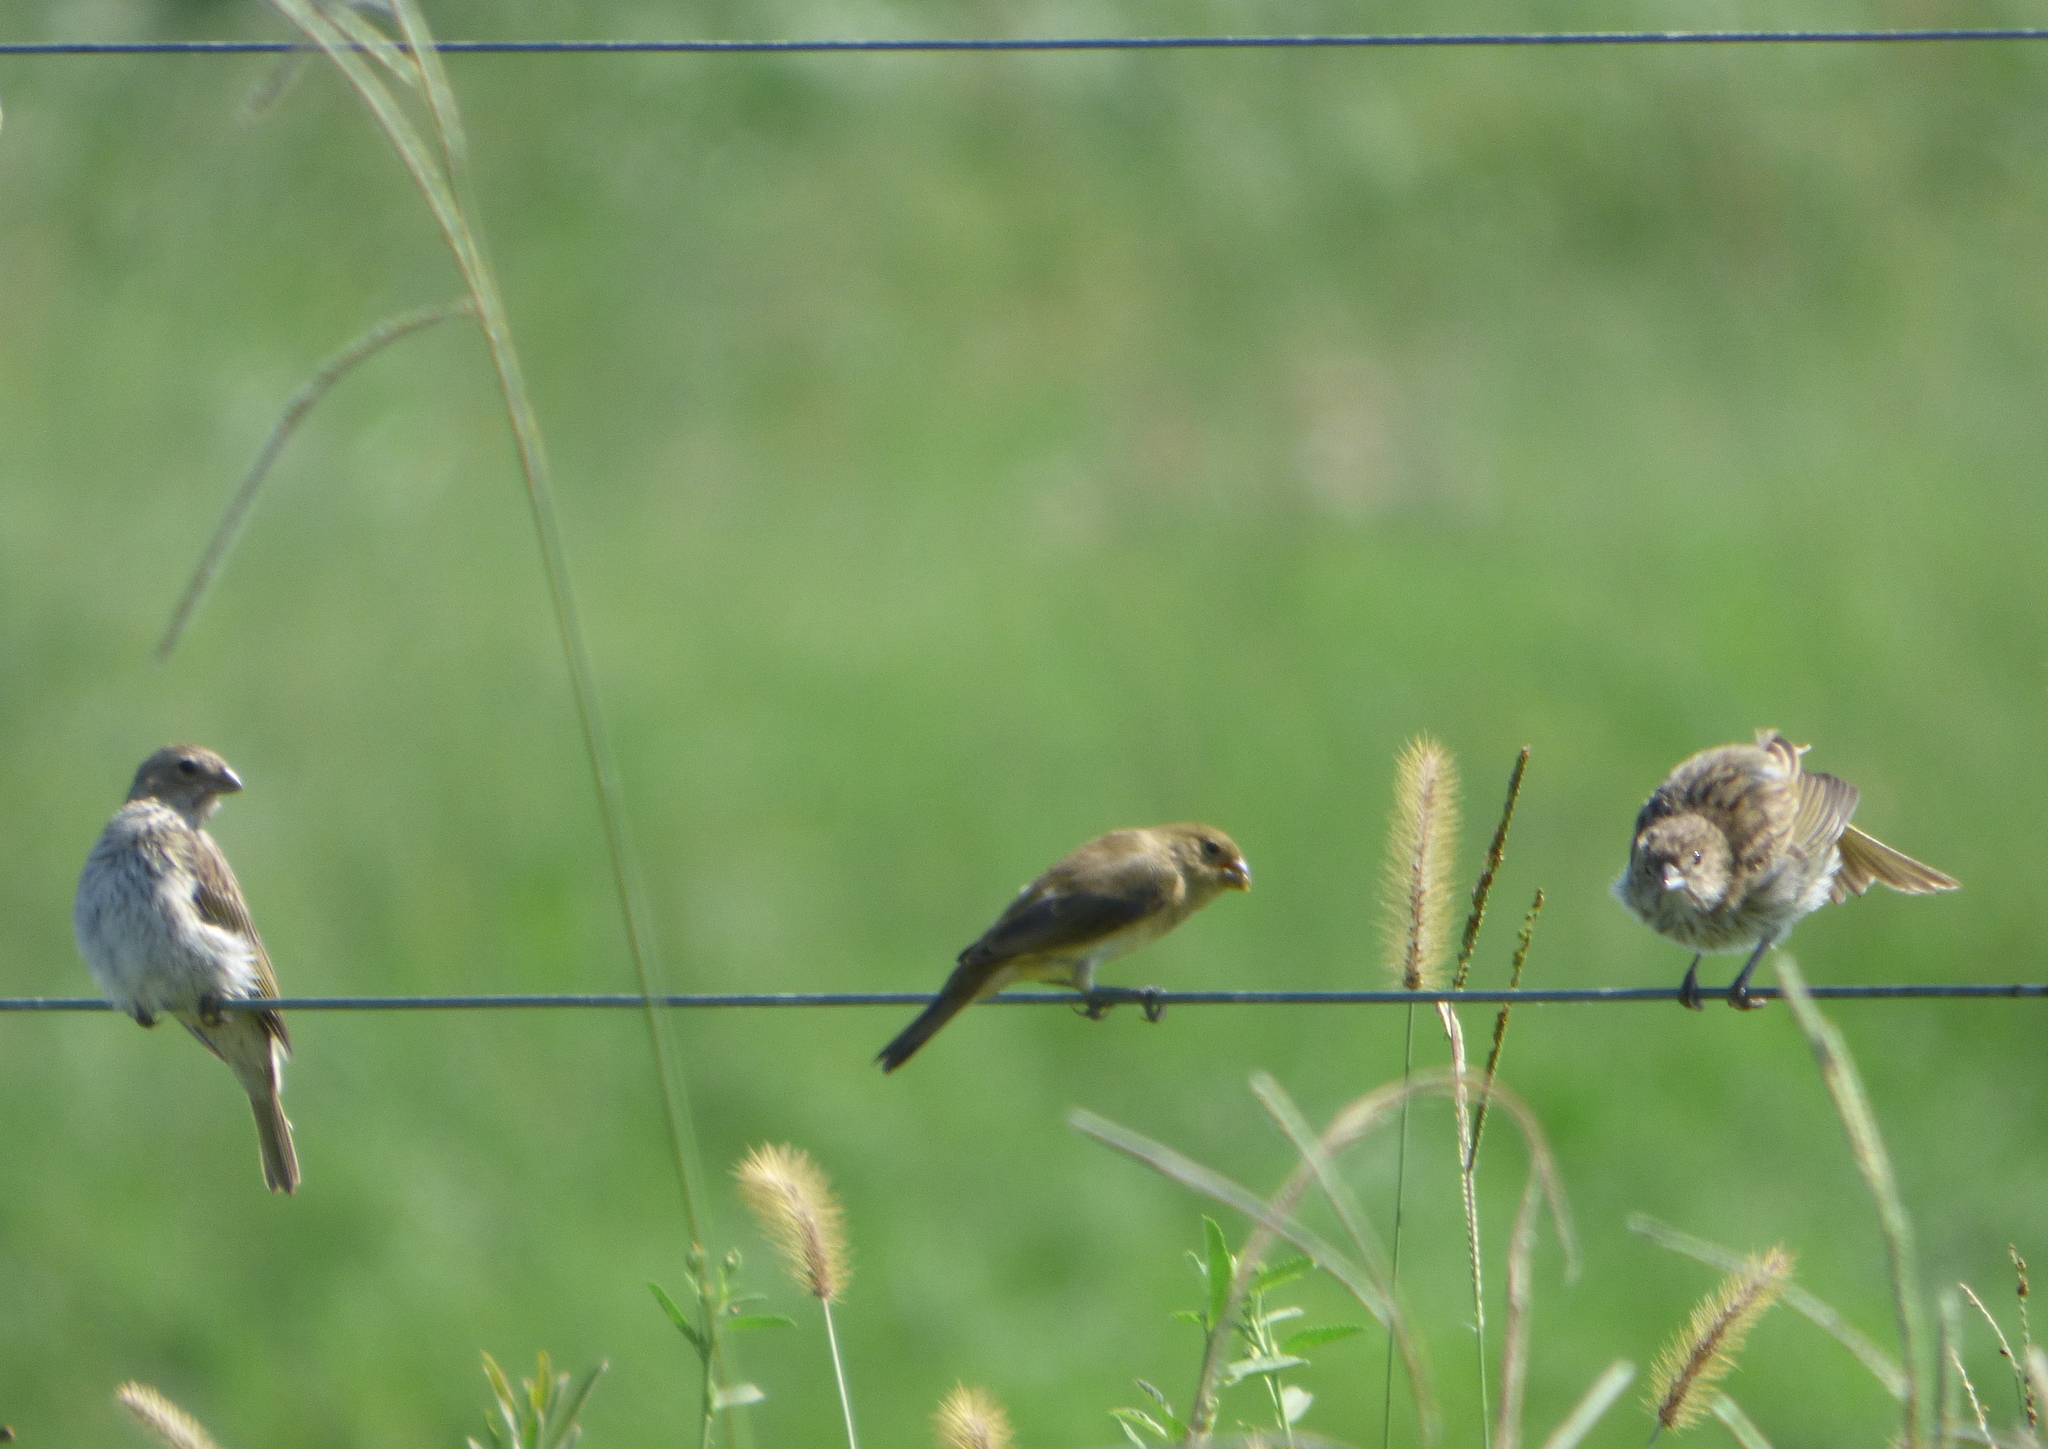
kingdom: Animalia
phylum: Chordata
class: Aves
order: Passeriformes
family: Thraupidae
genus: Sporophila
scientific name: Sporophila caerulescens
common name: Double-collared seedeater
